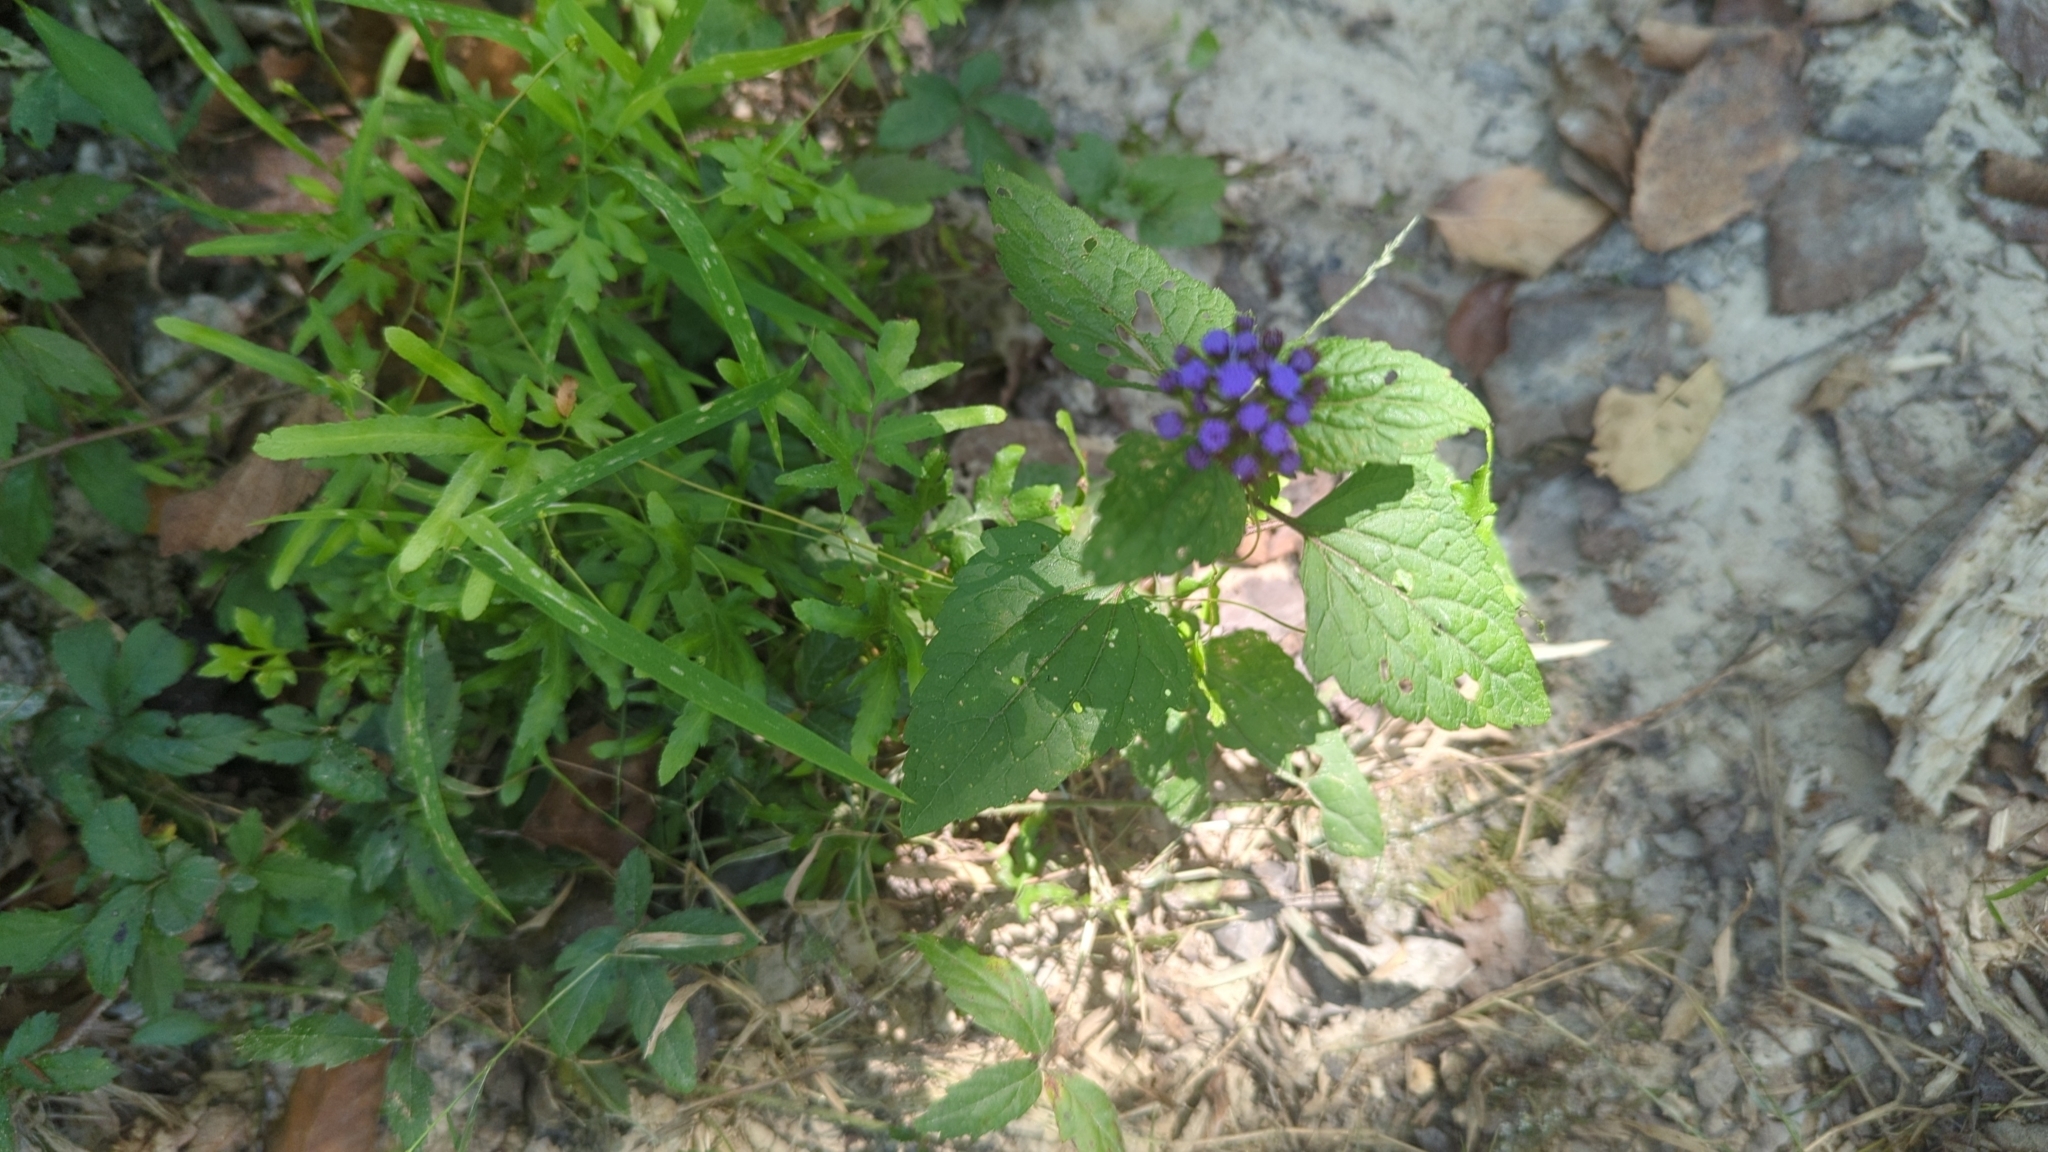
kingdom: Plantae
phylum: Tracheophyta
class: Magnoliopsida
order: Asterales
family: Asteraceae
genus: Conoclinium
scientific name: Conoclinium coelestinum
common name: Blue mistflower
